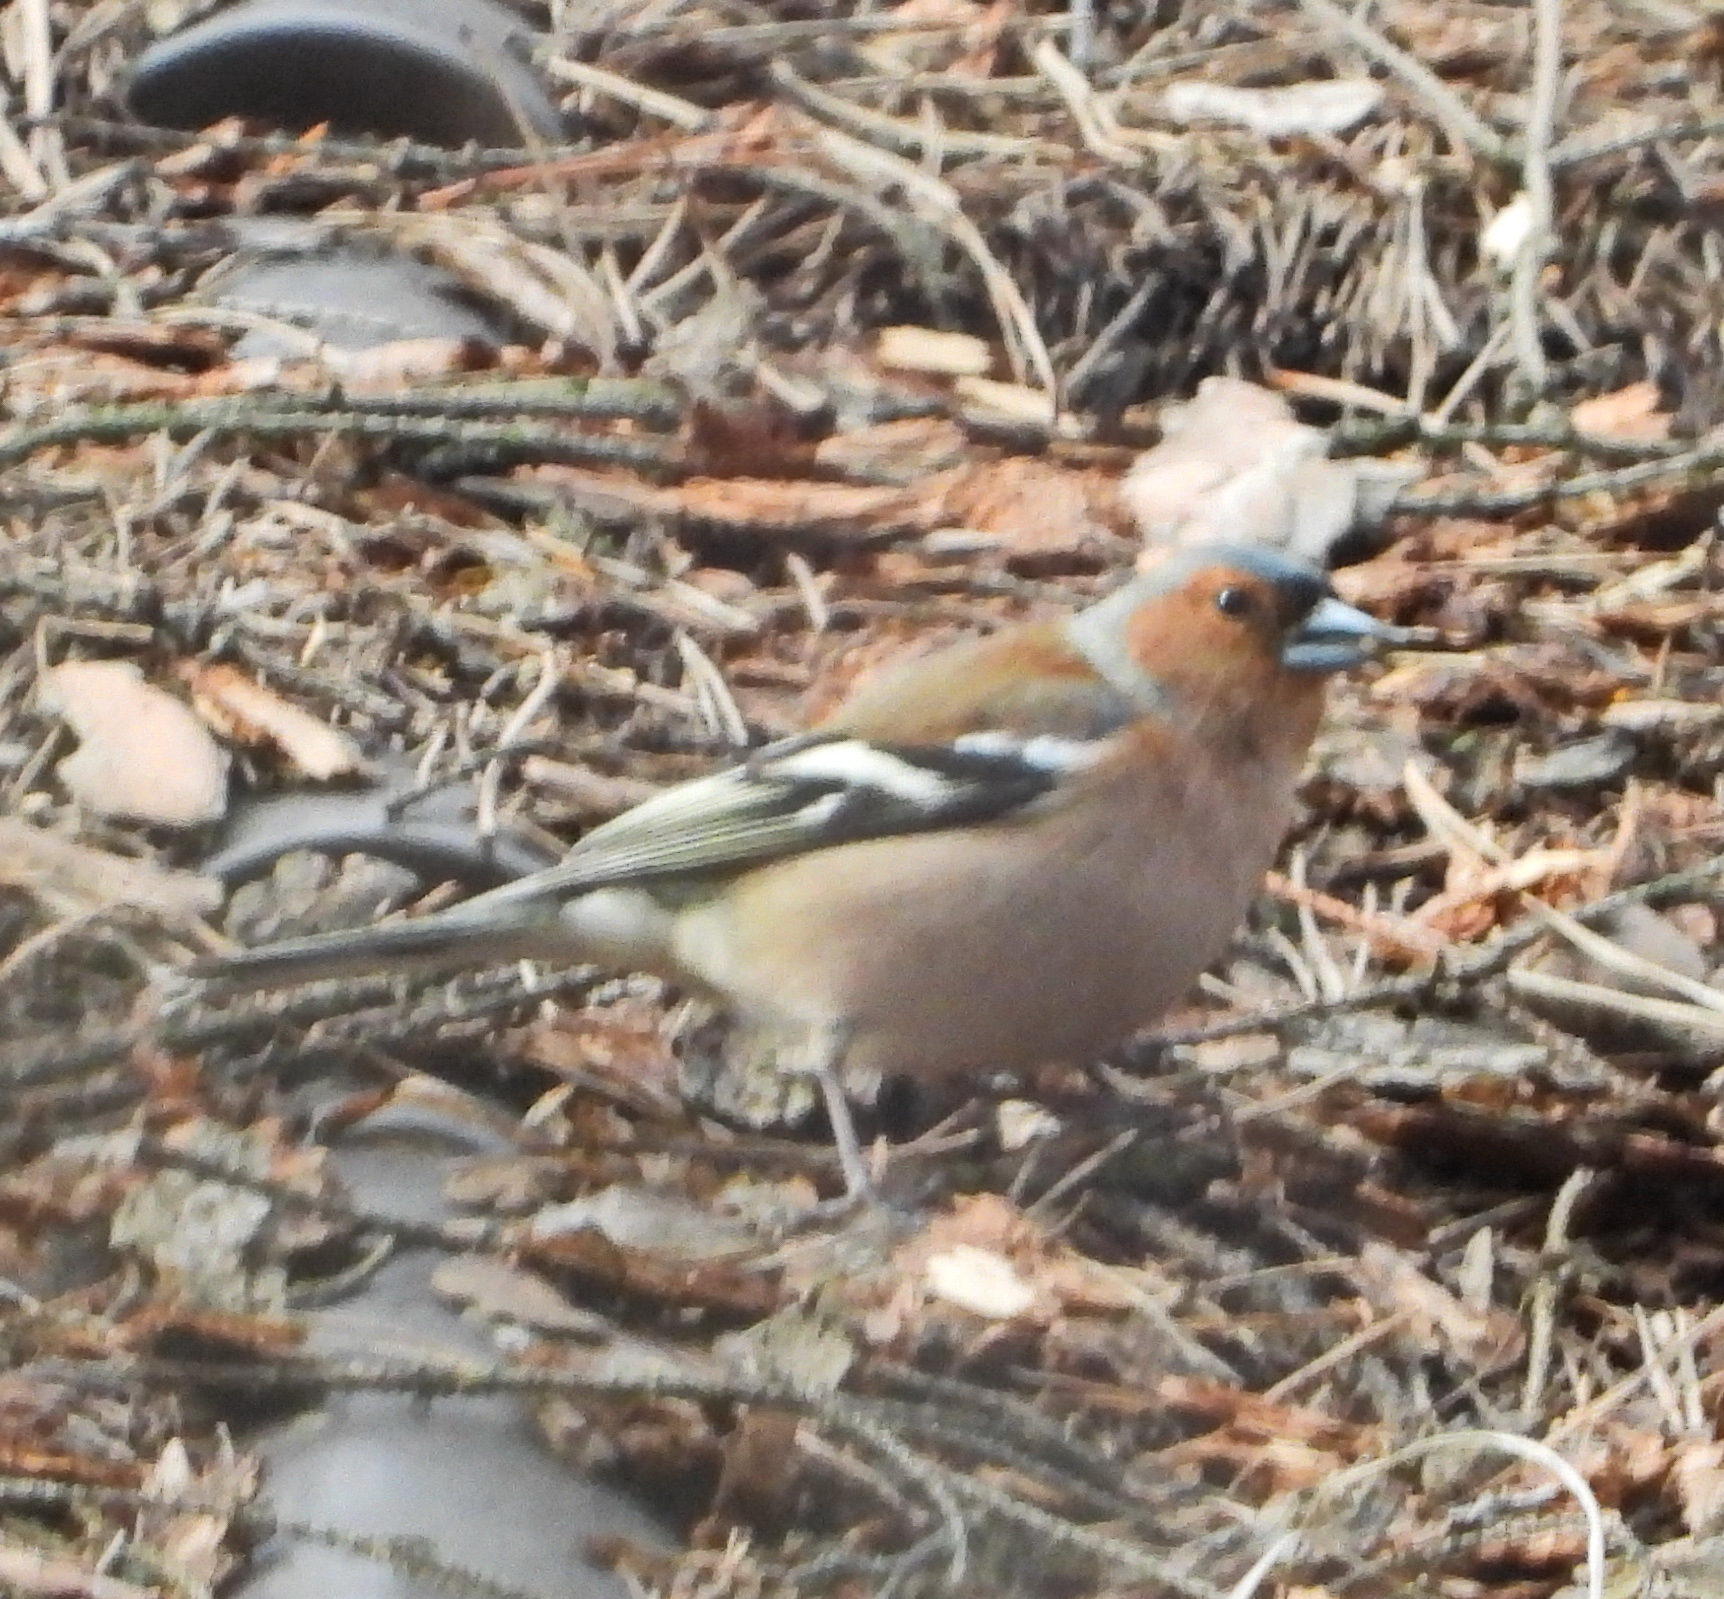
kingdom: Animalia
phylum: Chordata
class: Aves
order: Passeriformes
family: Fringillidae
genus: Fringilla
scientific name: Fringilla coelebs
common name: Common chaffinch
